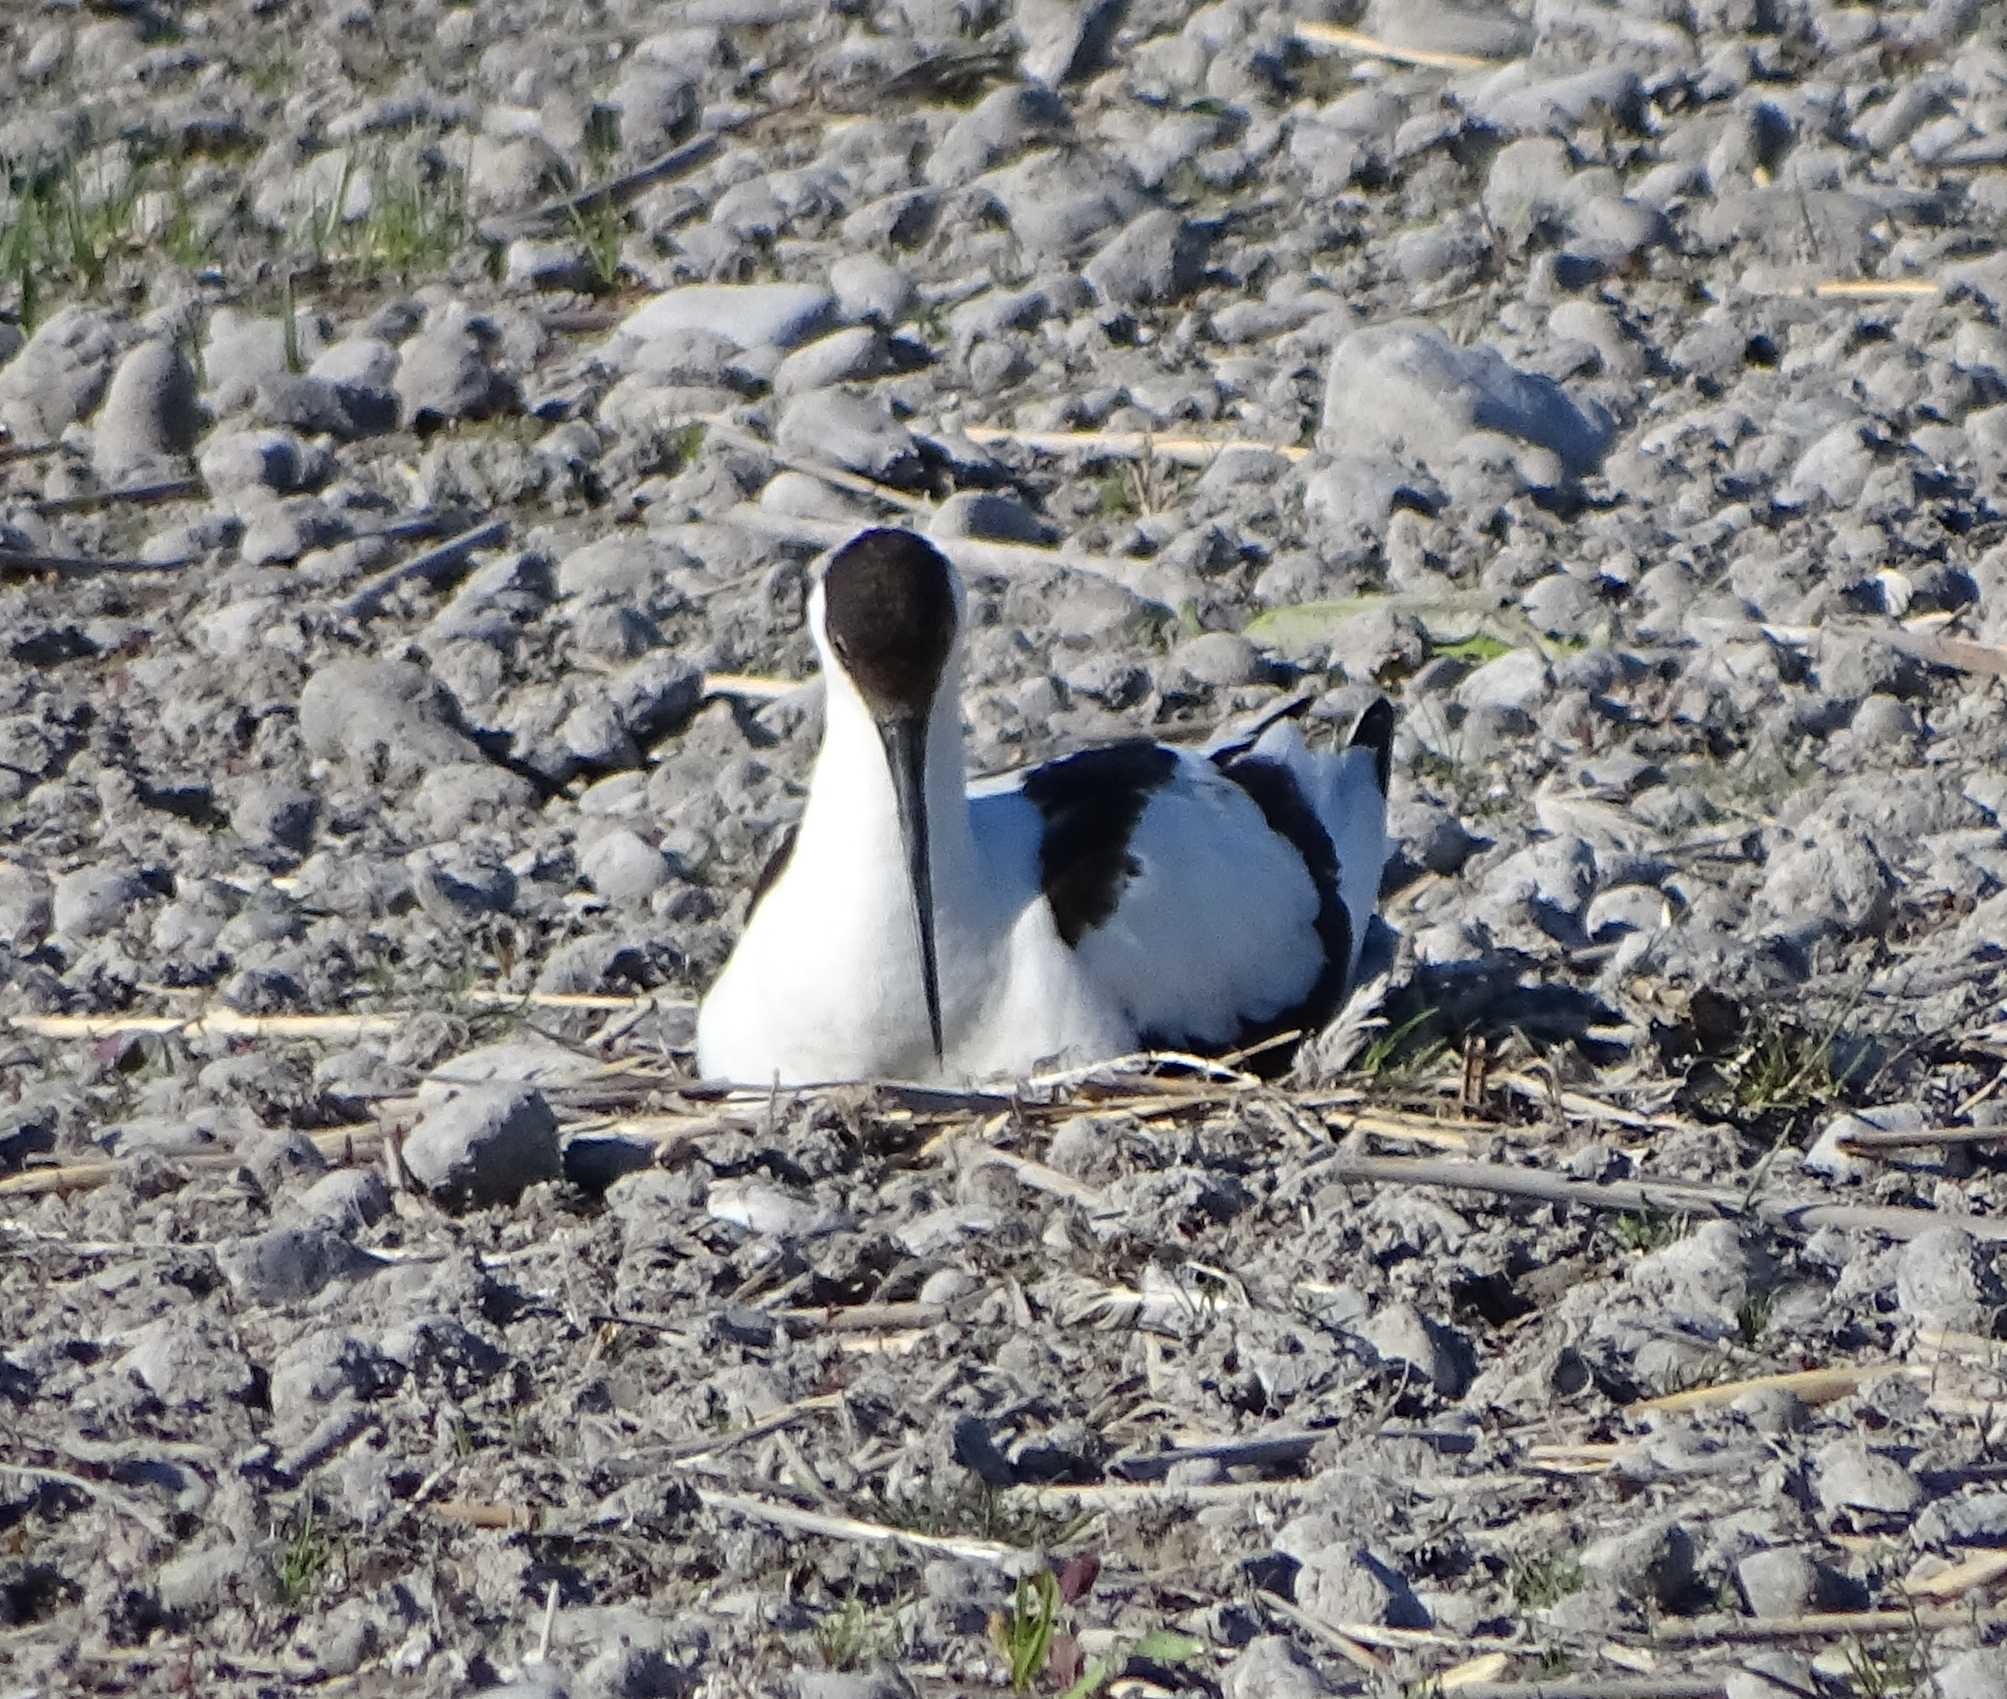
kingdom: Animalia
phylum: Chordata
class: Aves
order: Charadriiformes
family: Recurvirostridae
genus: Recurvirostra
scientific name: Recurvirostra avosetta
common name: Pied avocet
